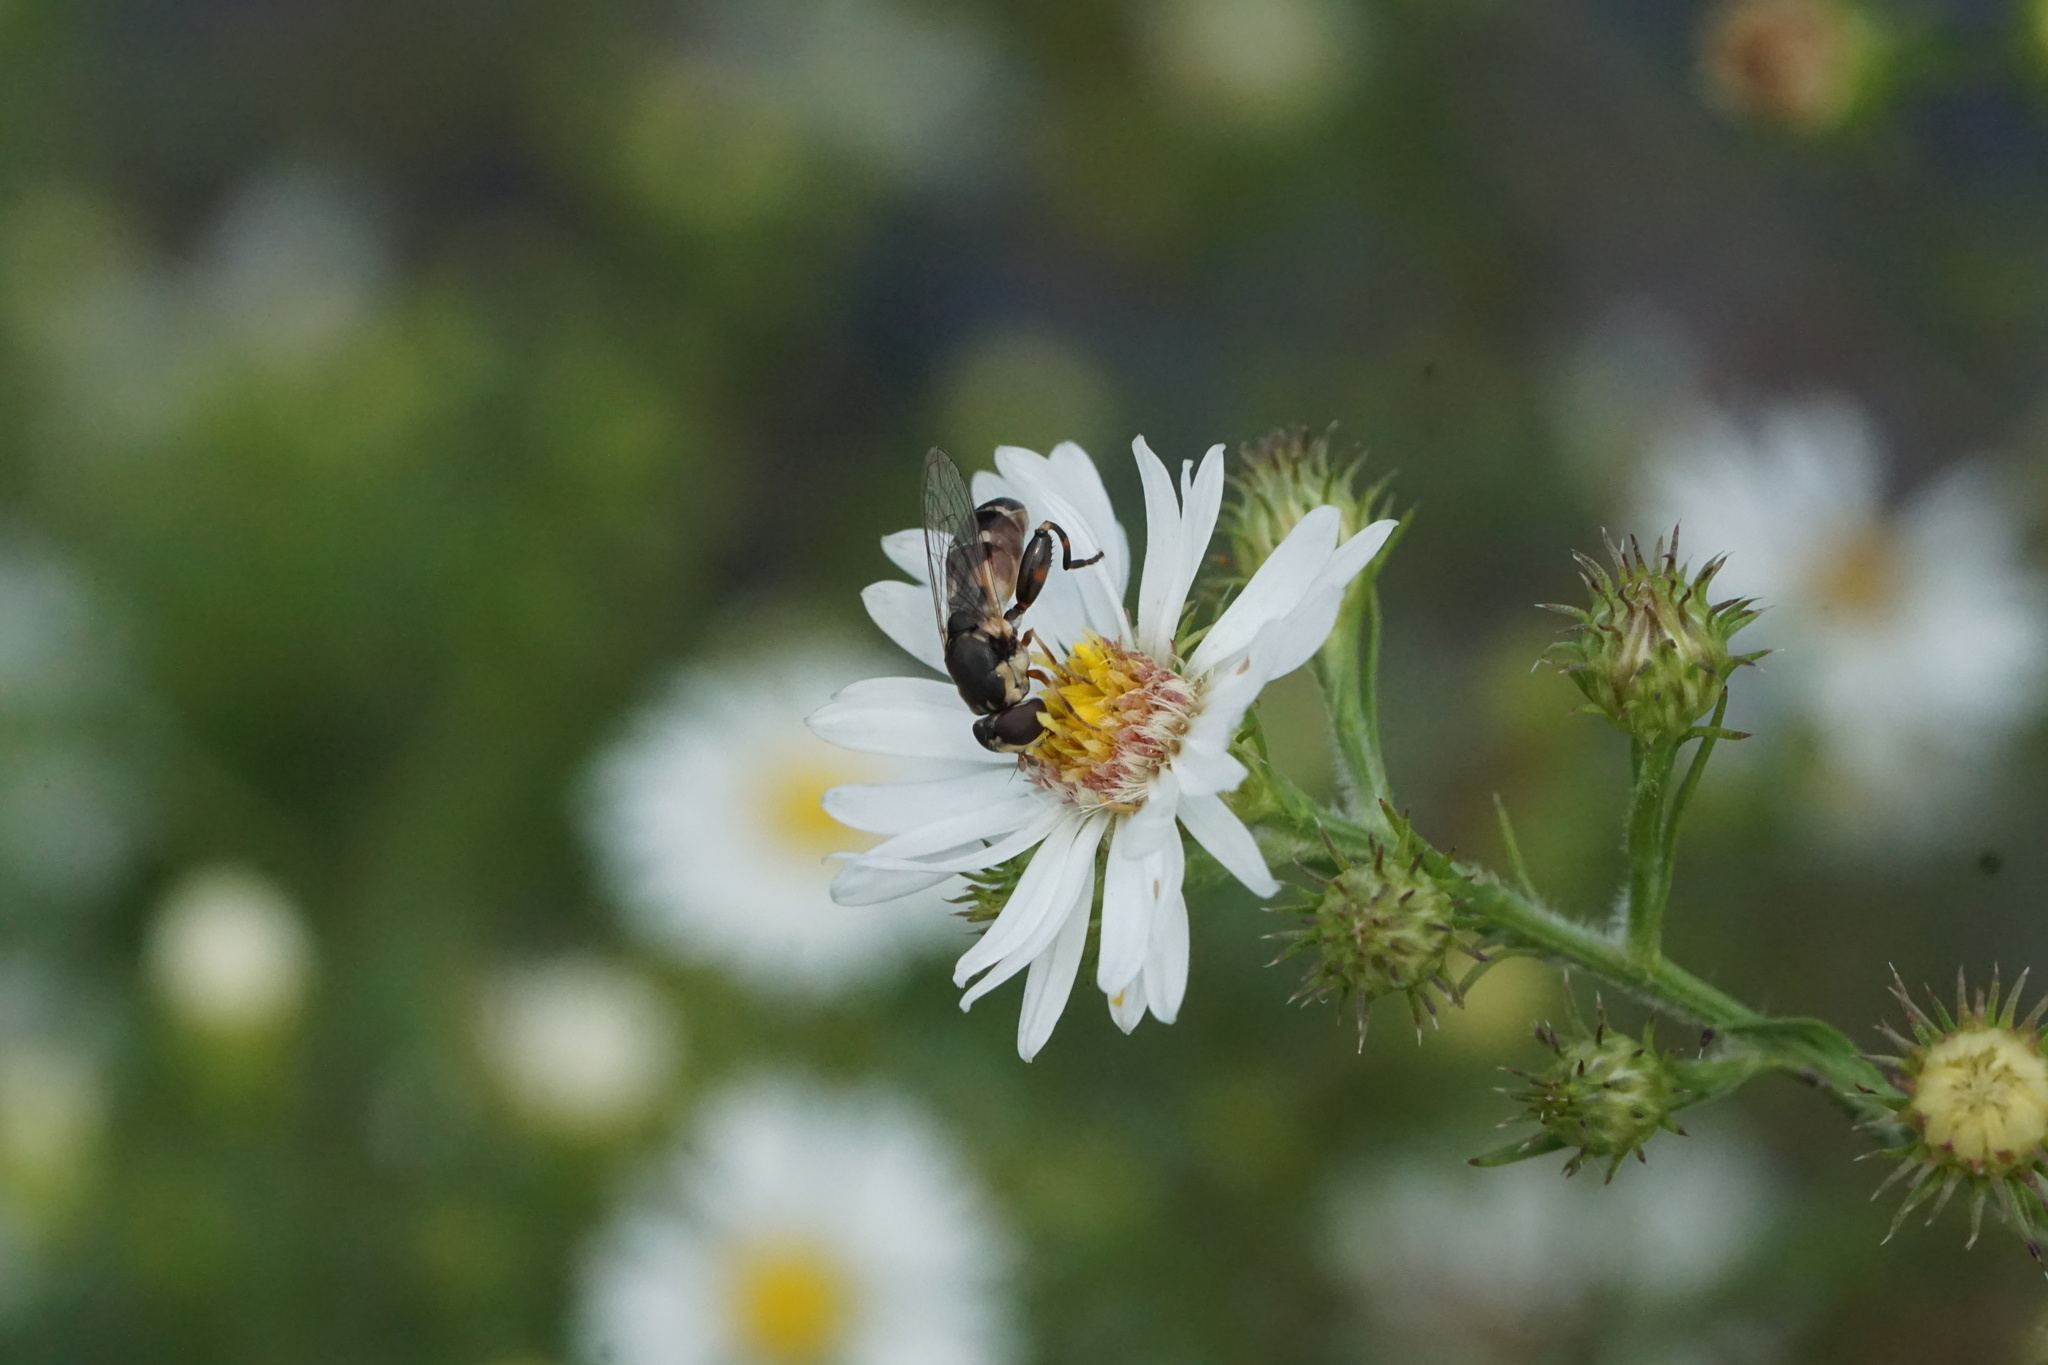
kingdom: Animalia
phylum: Arthropoda
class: Insecta
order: Diptera
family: Syrphidae
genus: Syritta
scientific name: Syritta pipiens
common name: Hover fly
